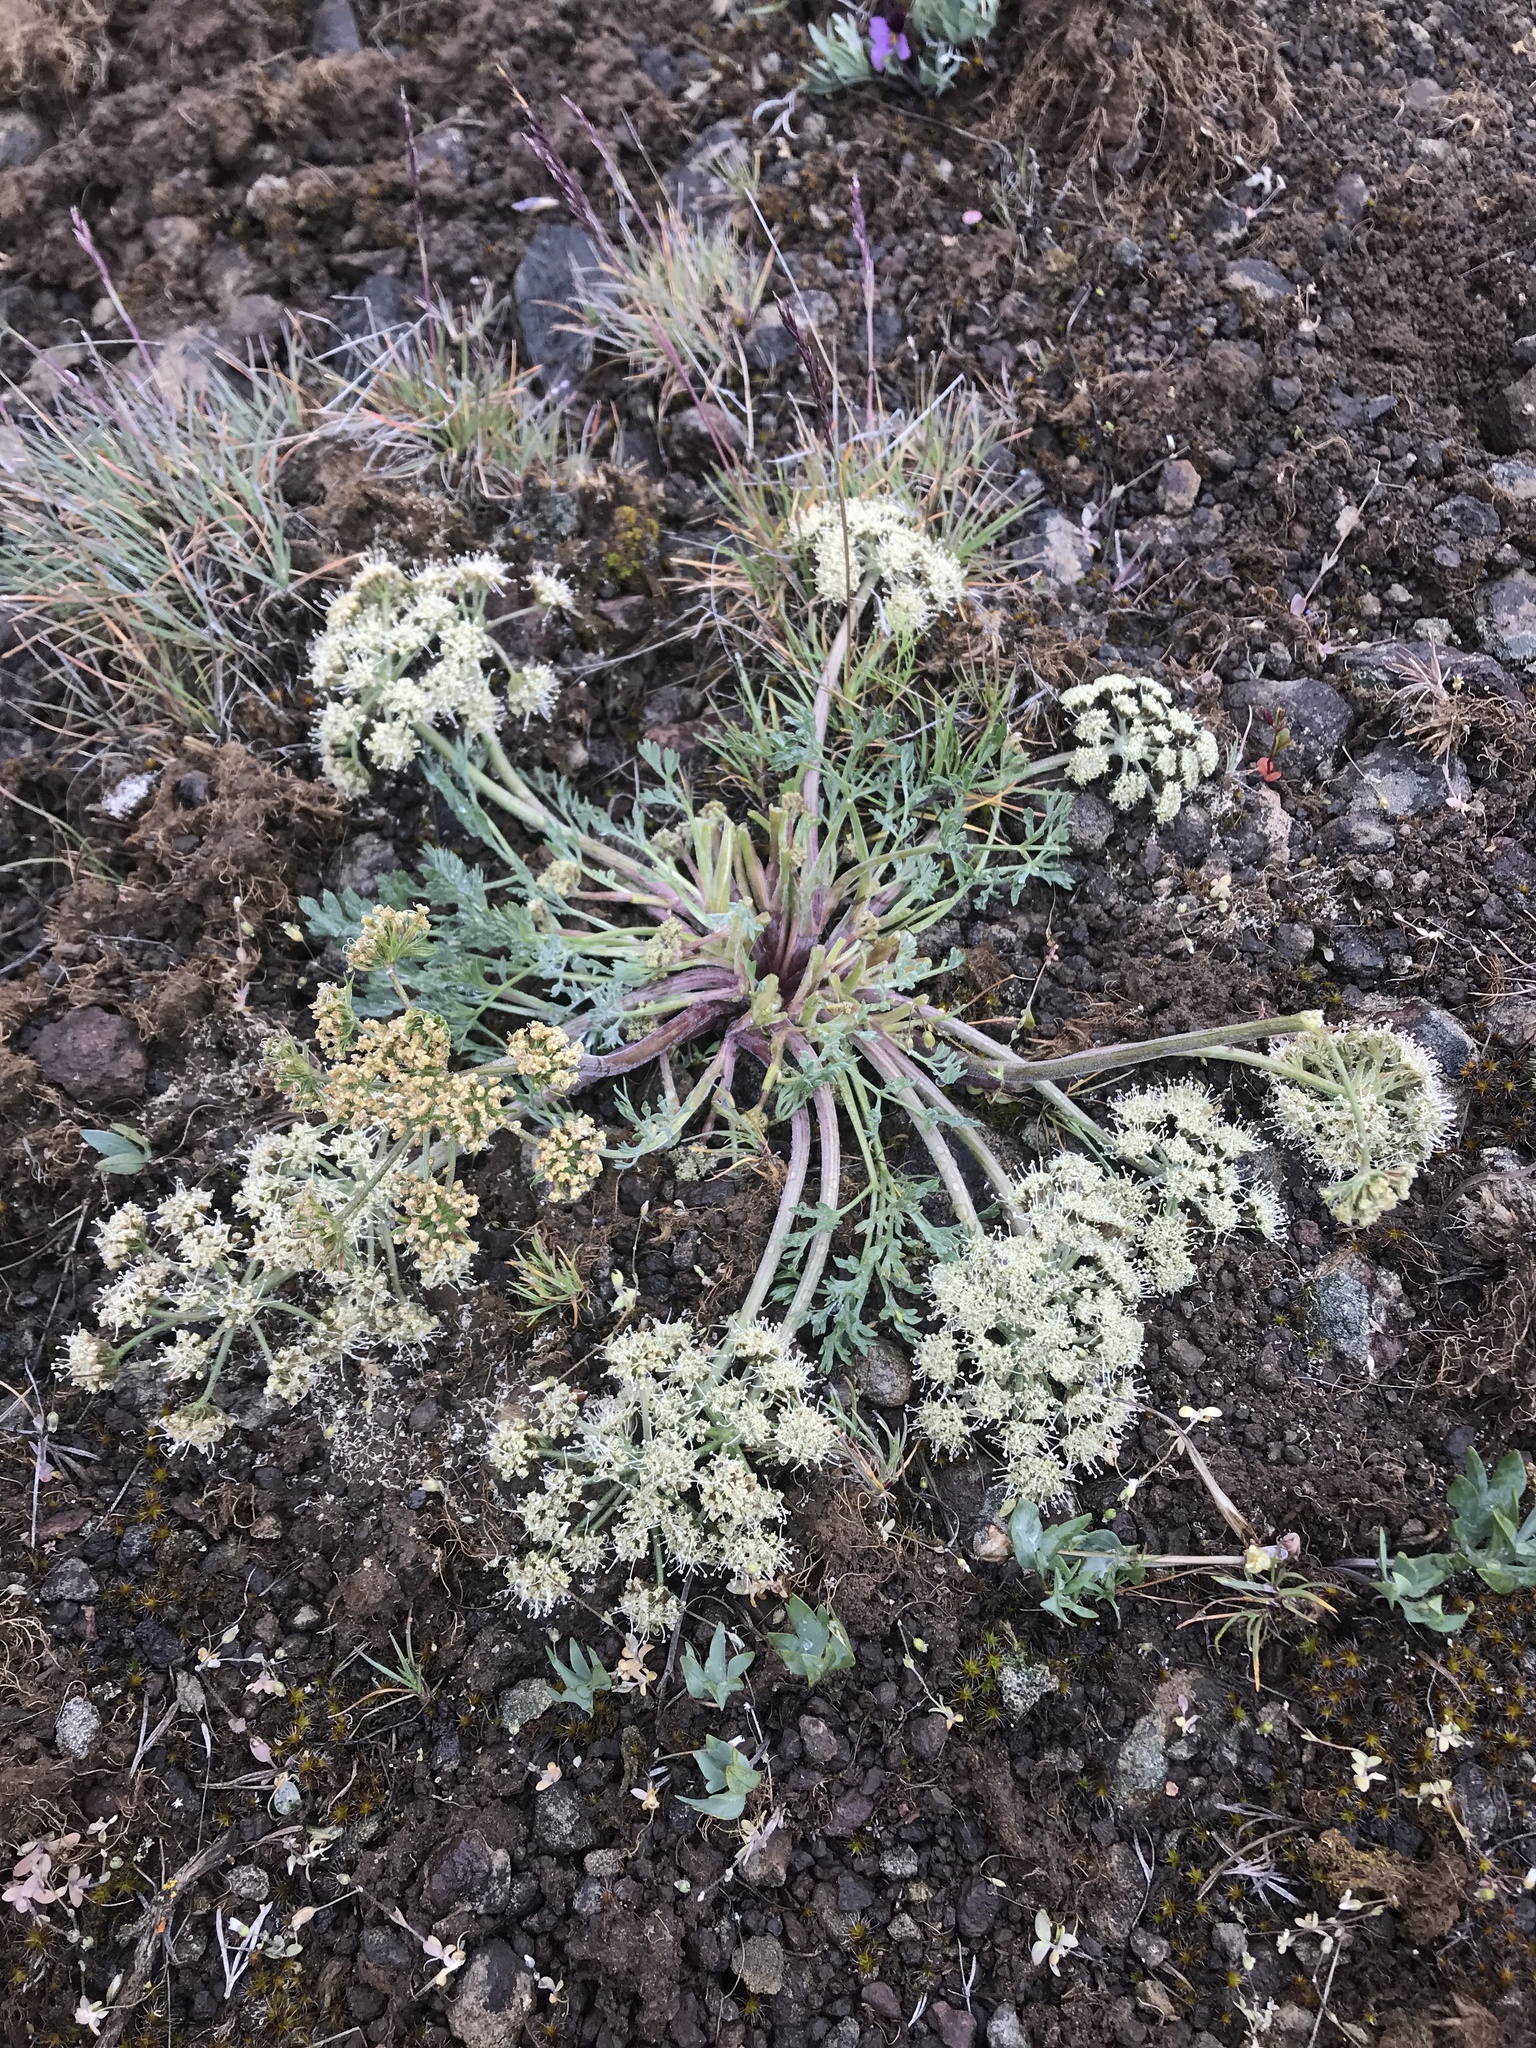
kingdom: Plantae
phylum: Tracheophyta
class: Magnoliopsida
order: Apiales
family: Apiaceae
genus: Lomatium
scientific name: Lomatium macrocarpum
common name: Big-seed biscuitroot
